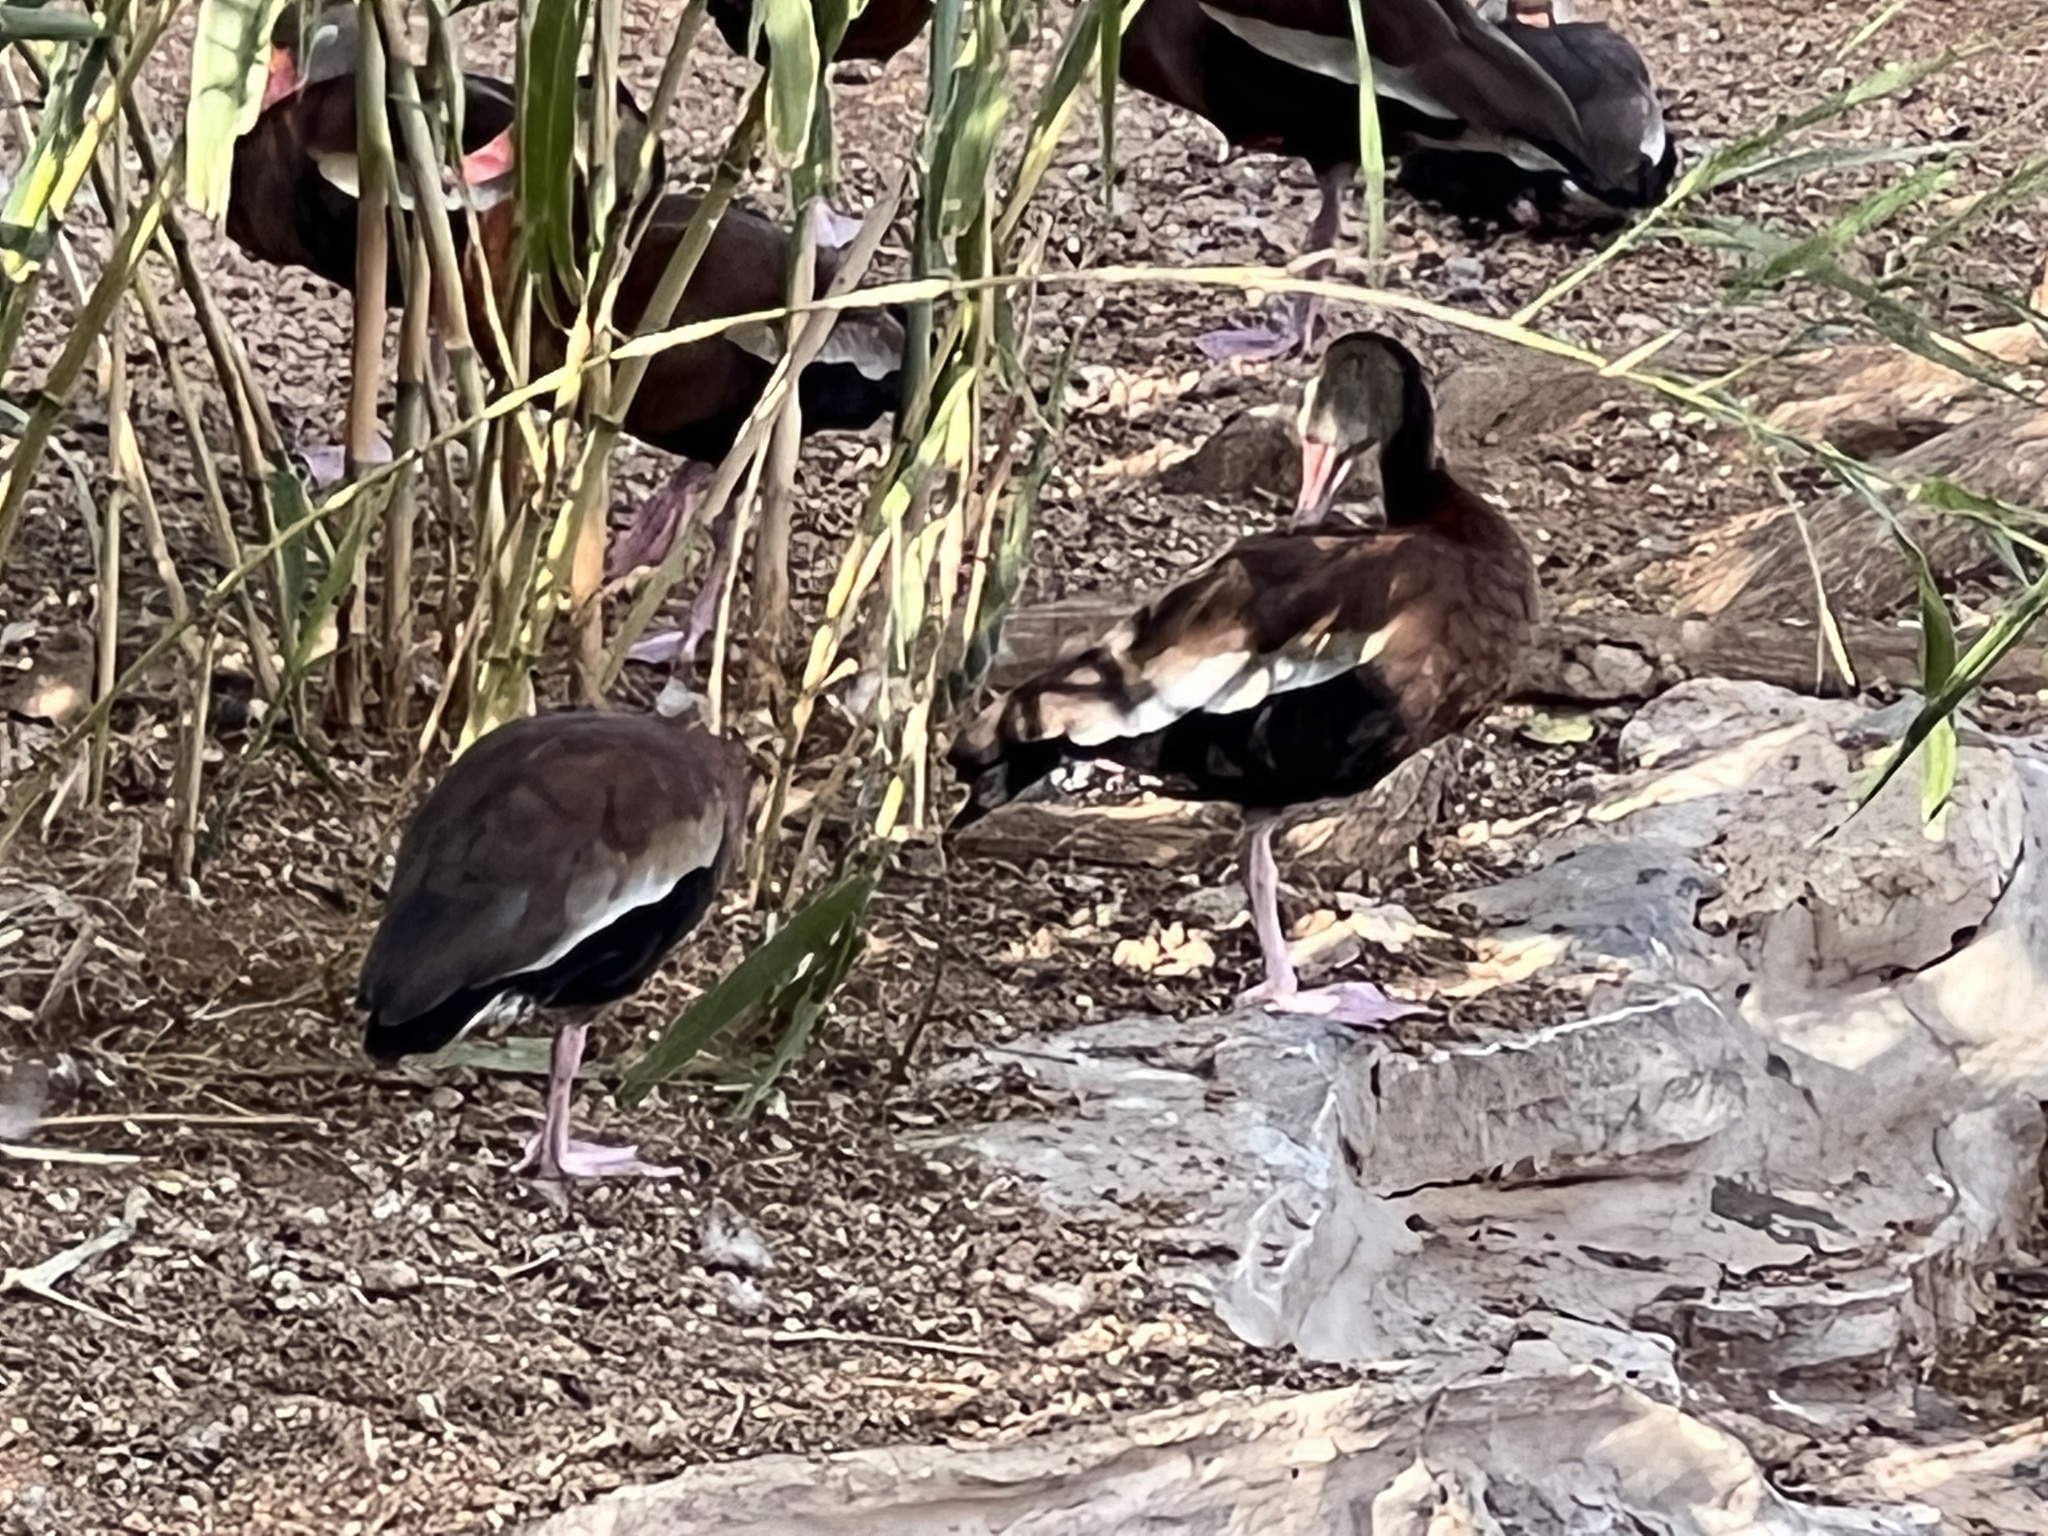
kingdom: Animalia
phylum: Chordata
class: Aves
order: Anseriformes
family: Anatidae
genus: Dendrocygna
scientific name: Dendrocygna autumnalis
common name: Black-bellied whistling duck
